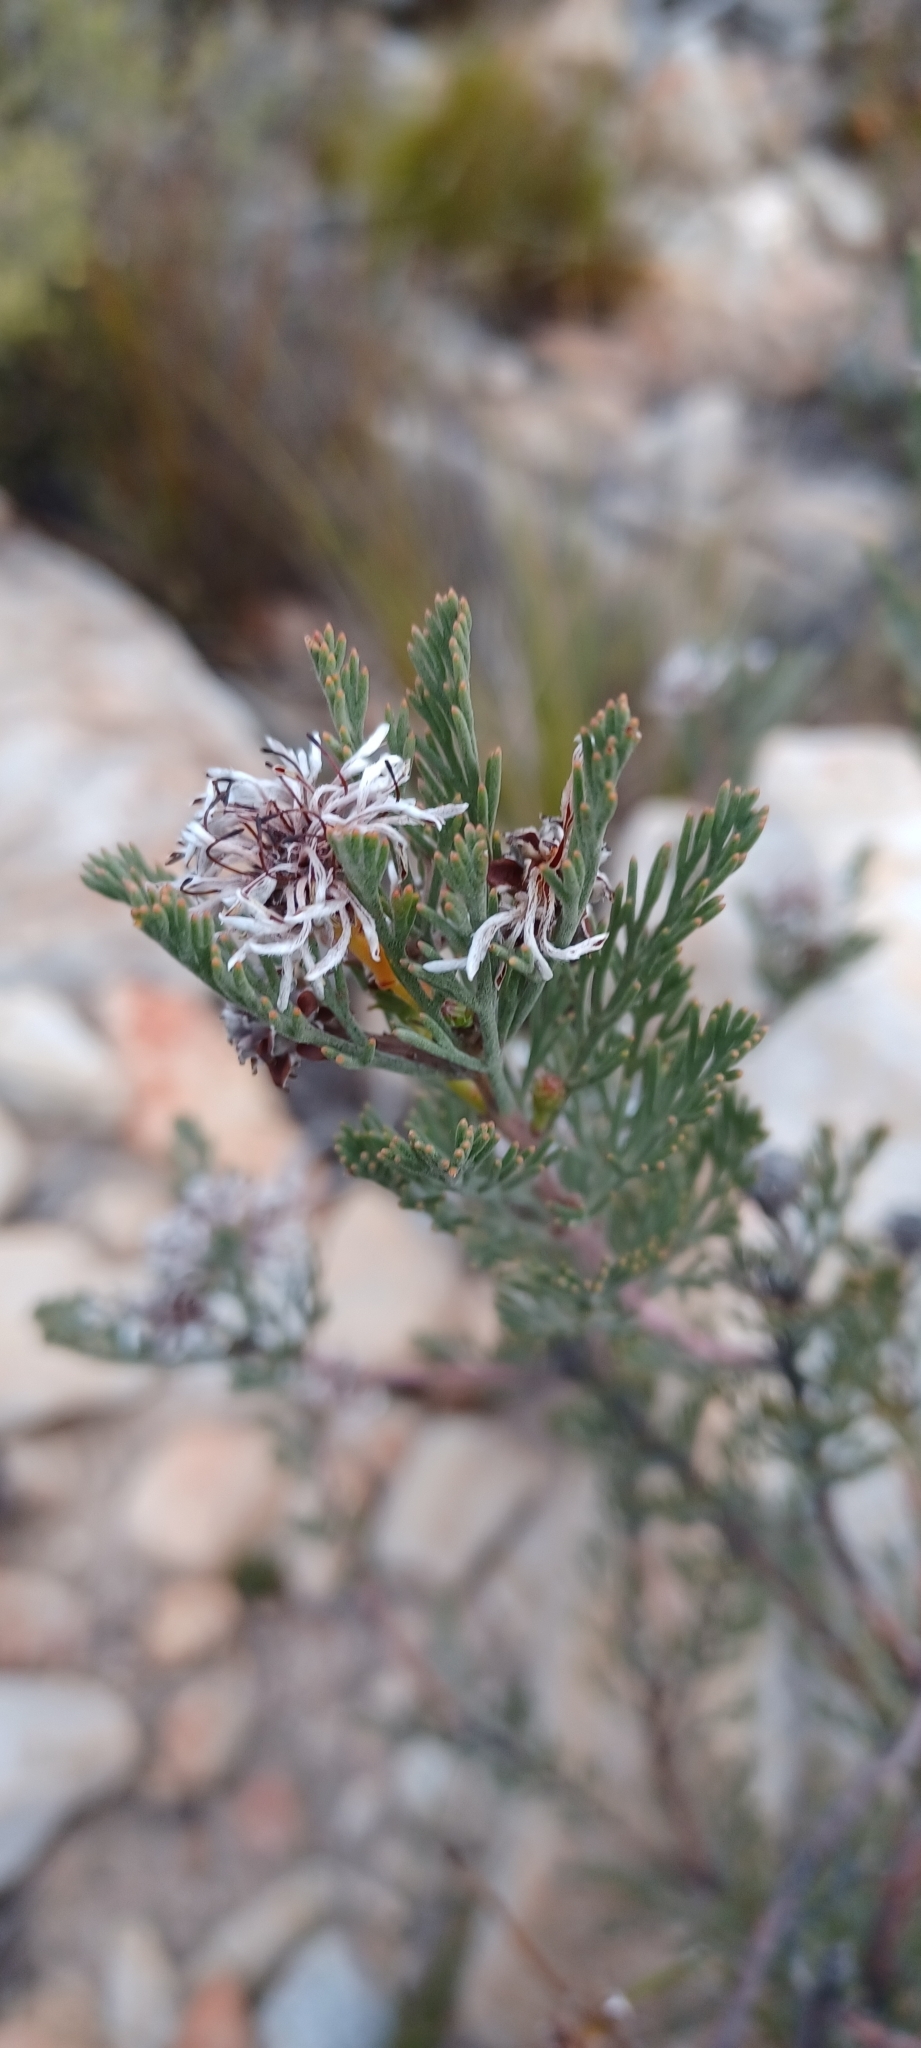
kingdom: Plantae
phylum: Tracheophyta
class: Magnoliopsida
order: Proteales
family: Proteaceae
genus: Serruria
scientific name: Serruria dodii
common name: Hex river spiderhead
